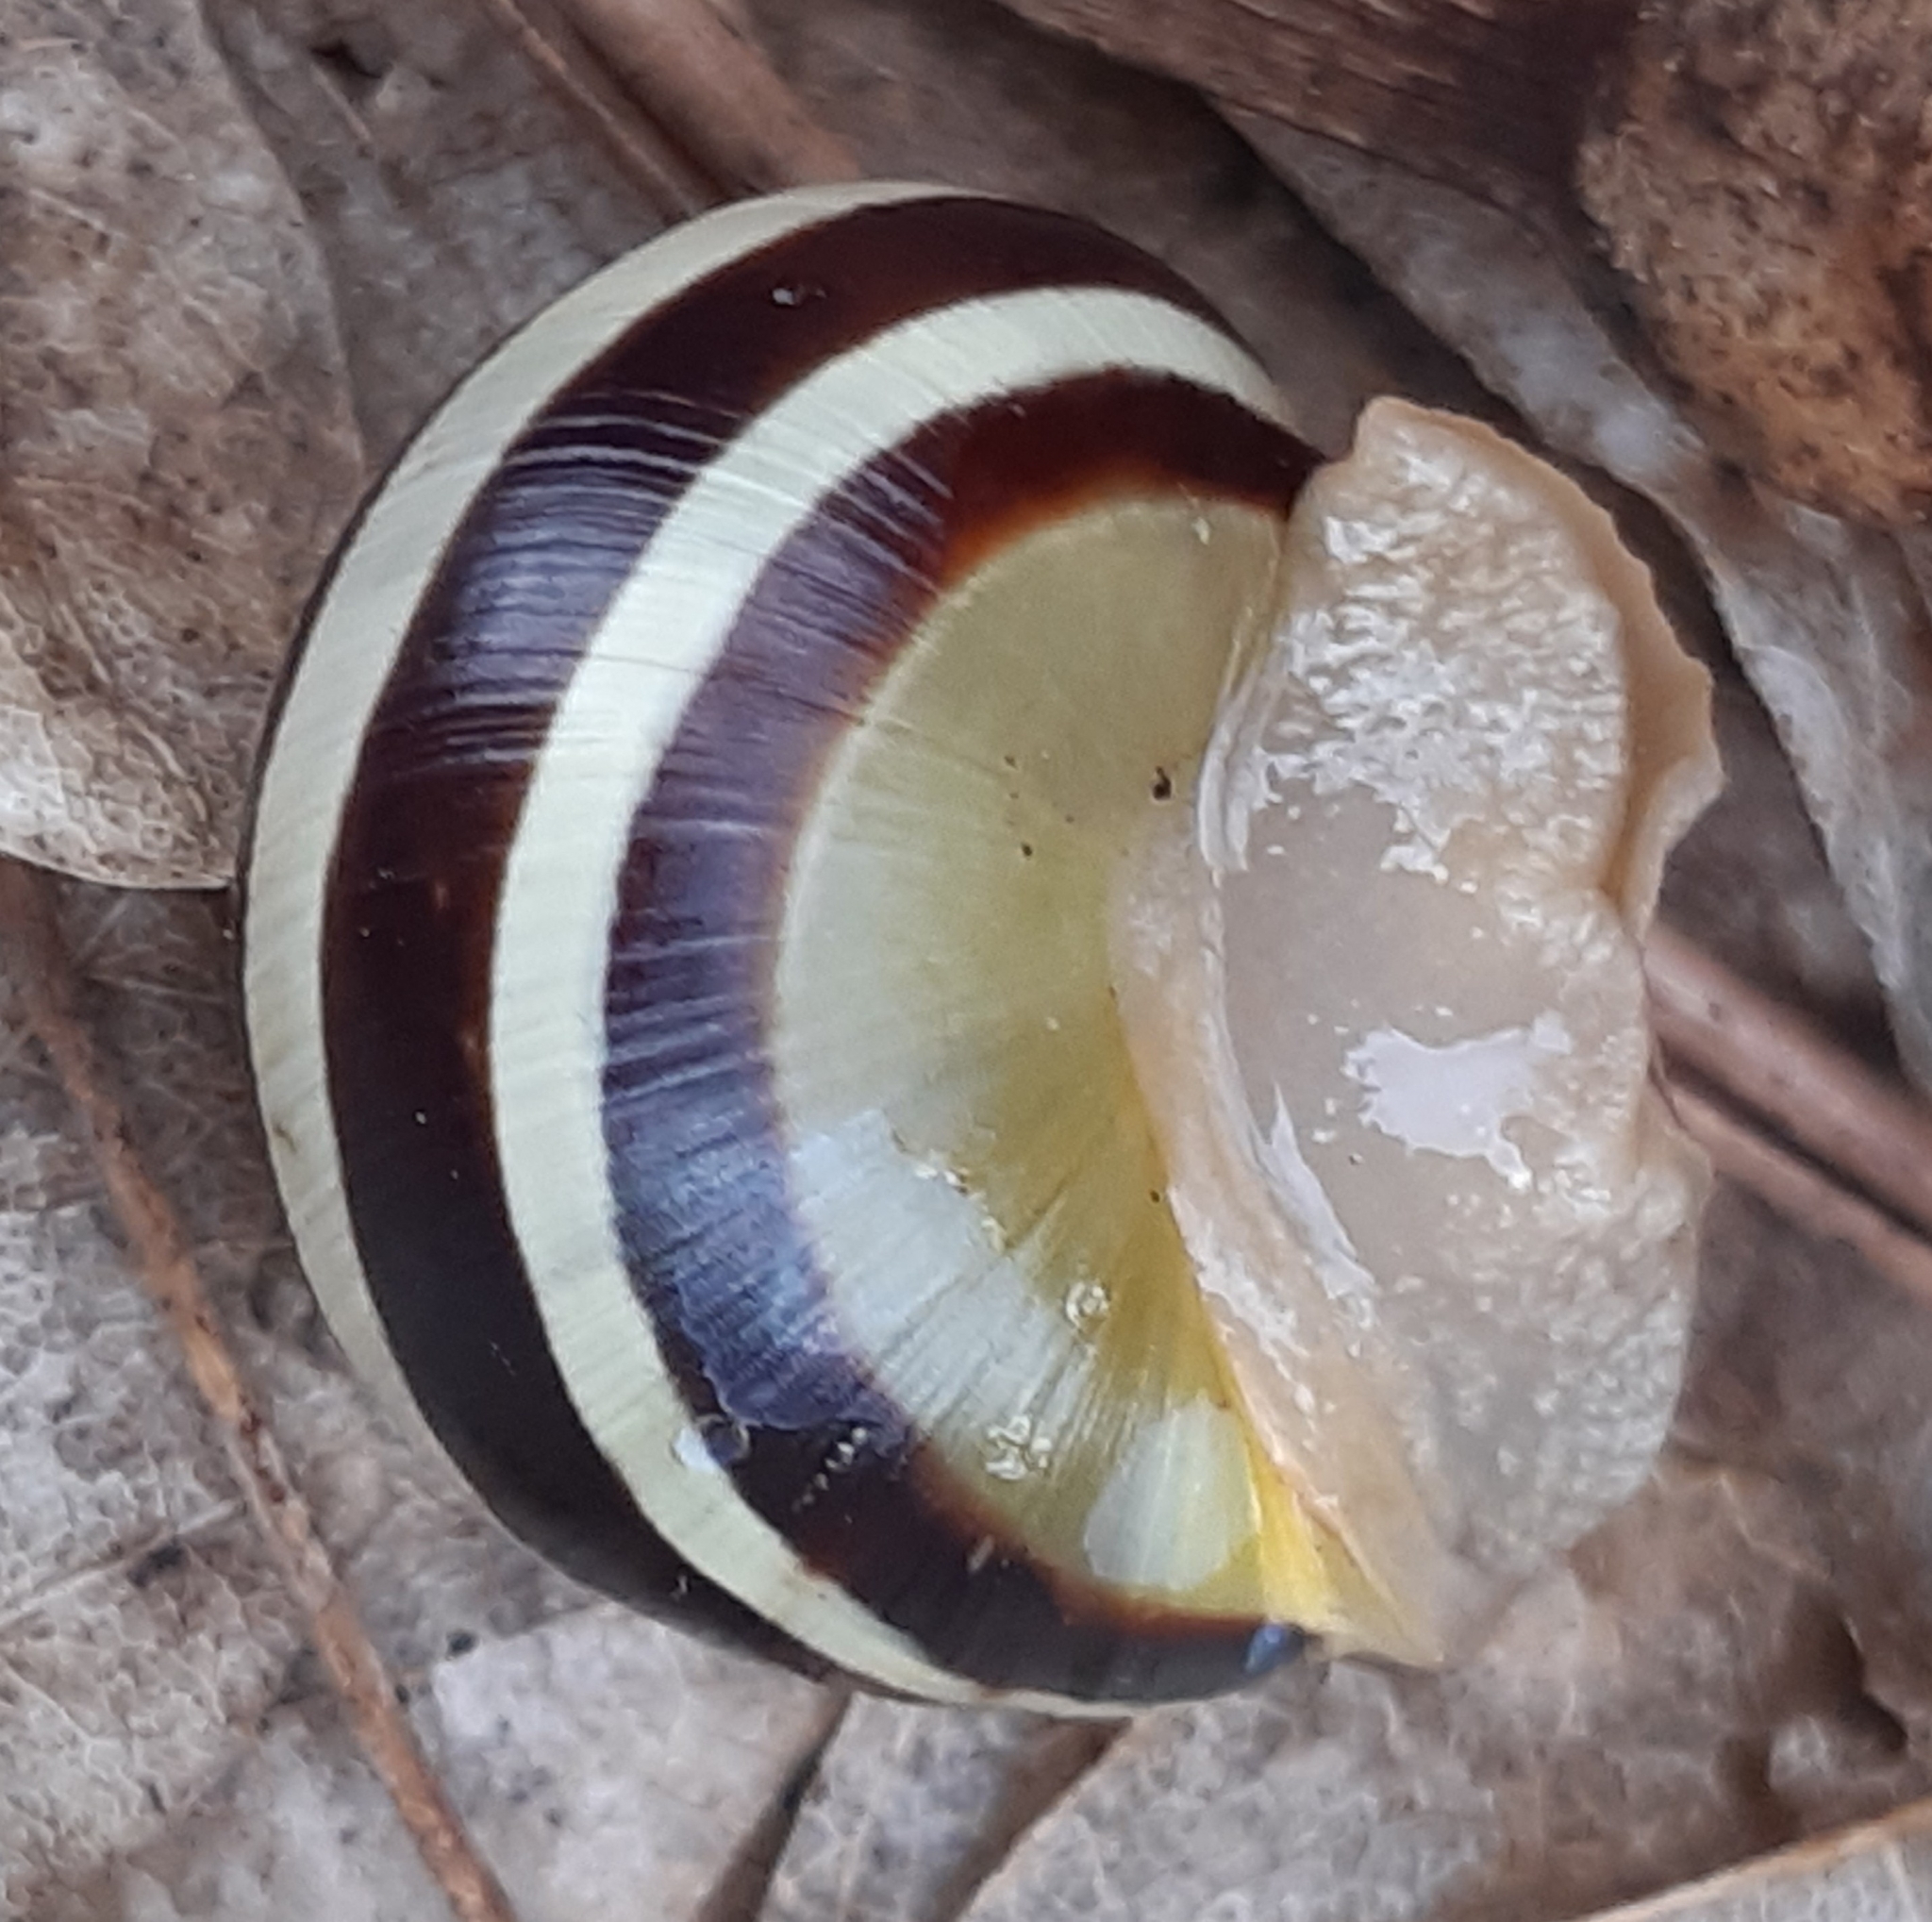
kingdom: Animalia
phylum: Mollusca
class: Gastropoda
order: Stylommatophora
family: Helicidae
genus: Cepaea
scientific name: Cepaea hortensis
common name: White-lip gardensnail
